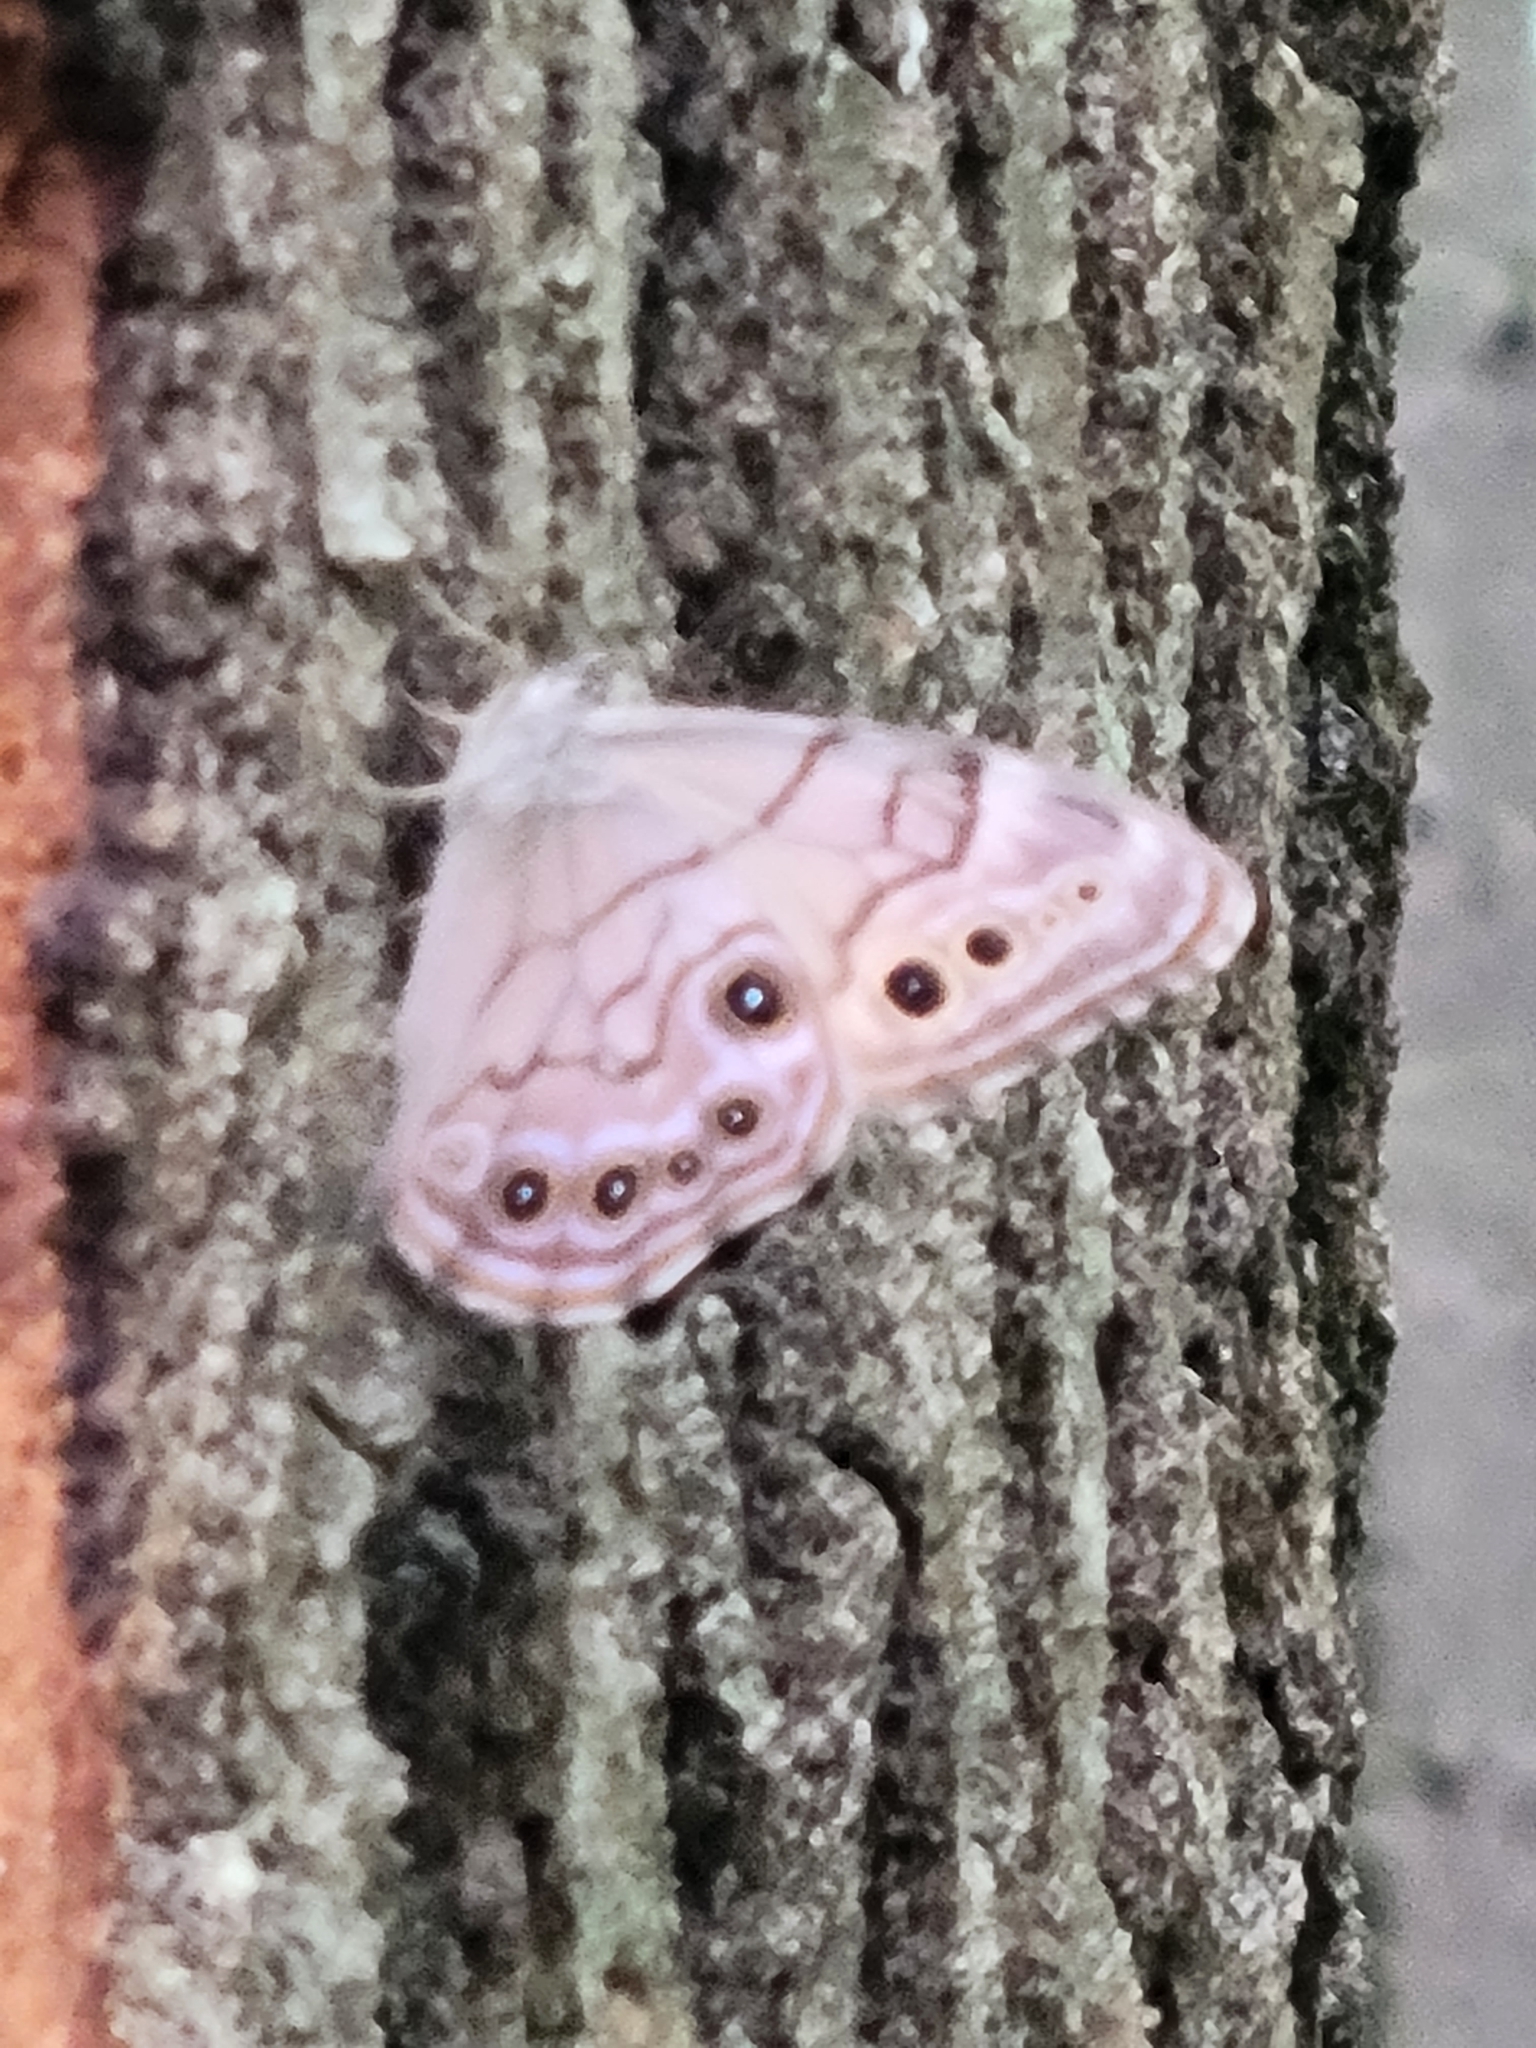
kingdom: Animalia
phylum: Arthropoda
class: Insecta
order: Lepidoptera
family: Nymphalidae
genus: Lethe
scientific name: Lethe anthedon
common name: Northern pearly-eye
